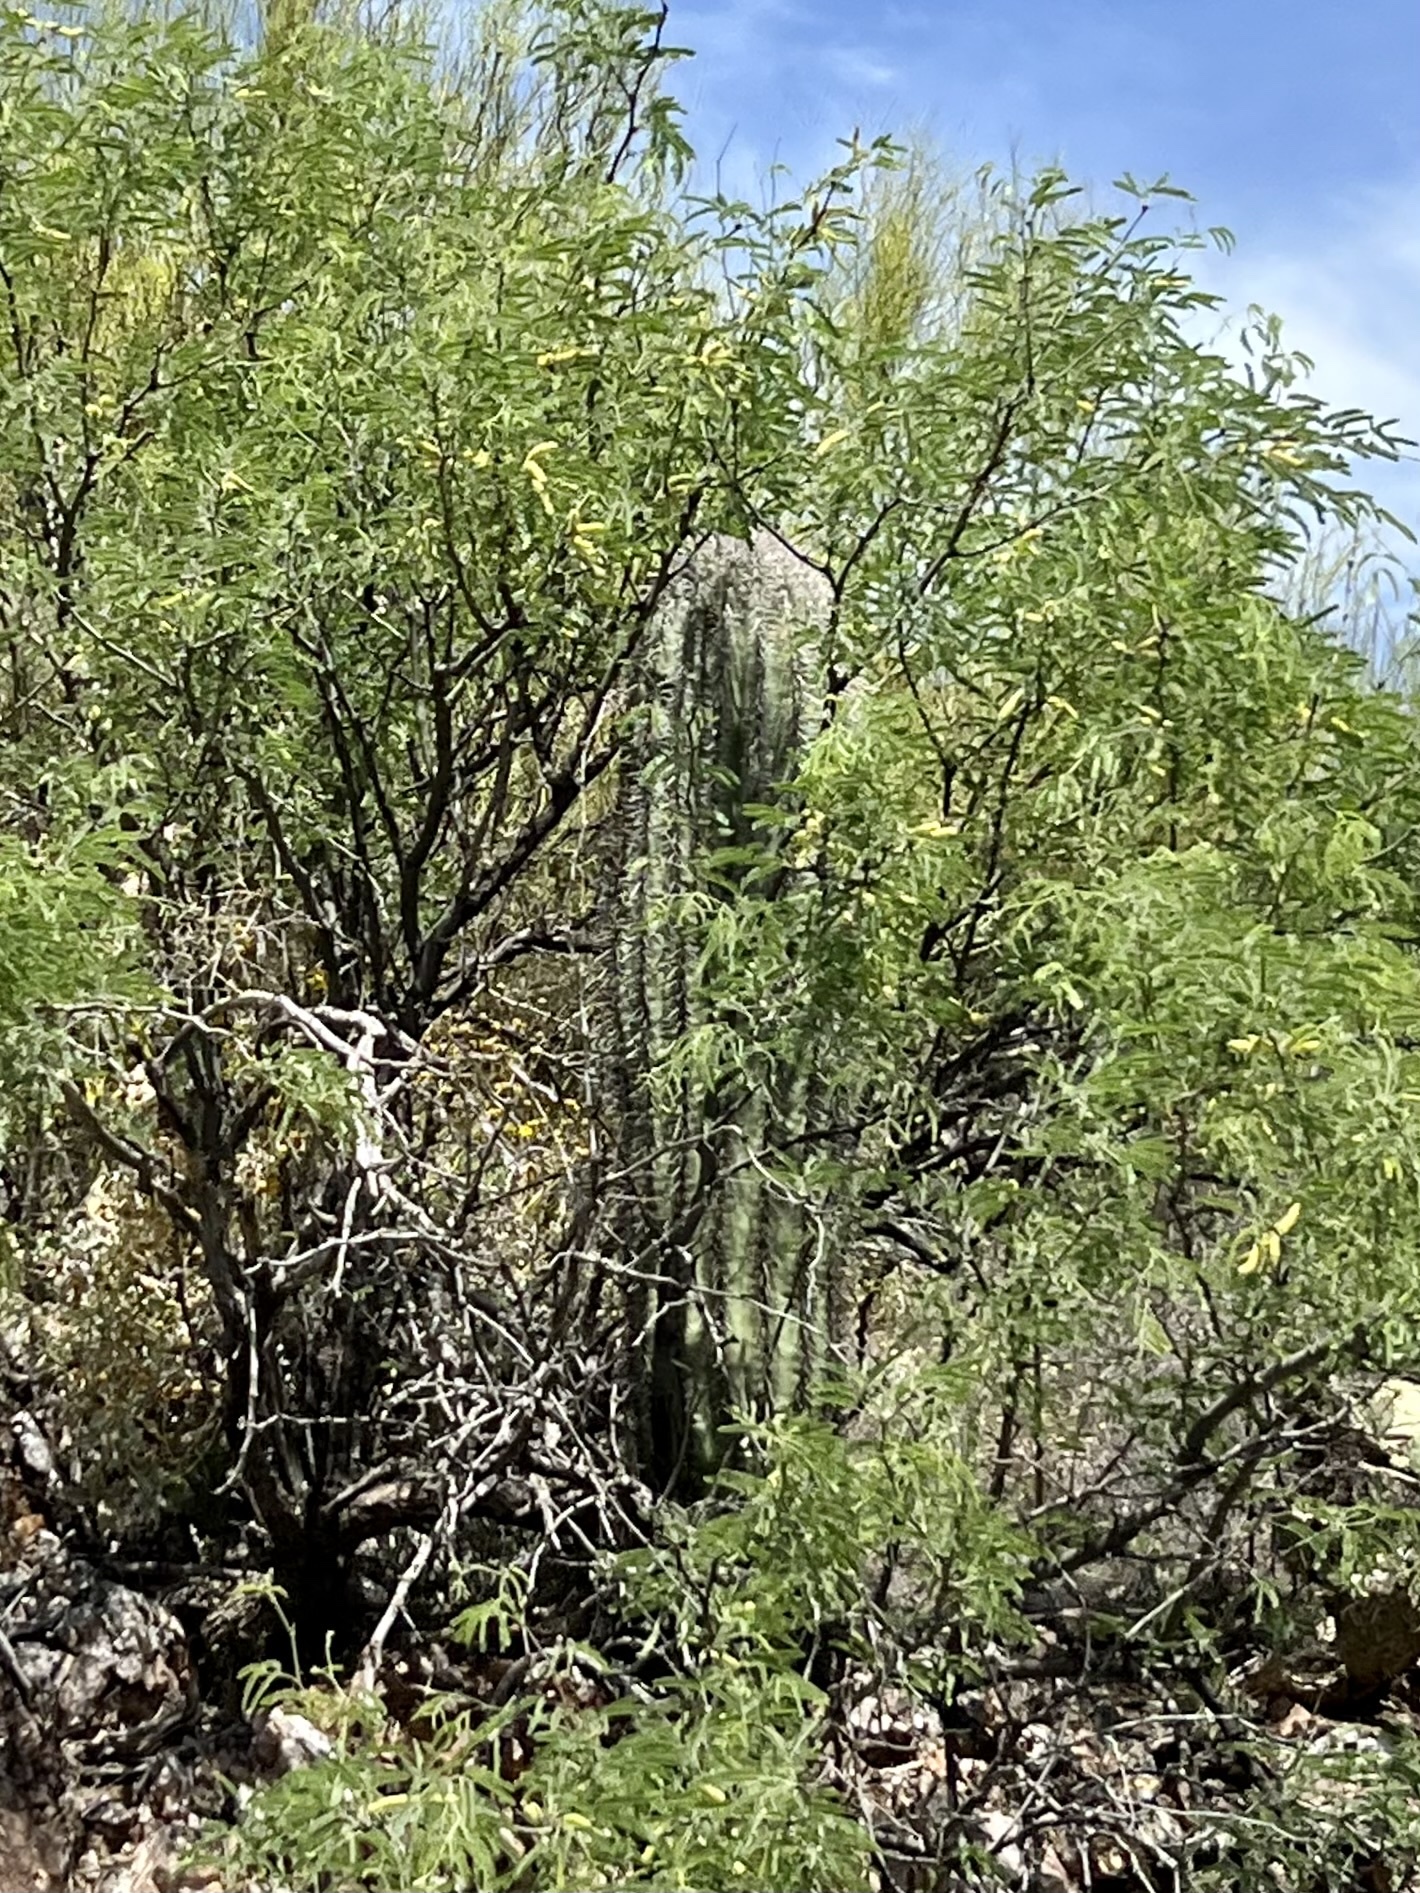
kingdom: Plantae
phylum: Tracheophyta
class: Magnoliopsida
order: Caryophyllales
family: Cactaceae
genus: Carnegiea
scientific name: Carnegiea gigantea
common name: Saguaro
